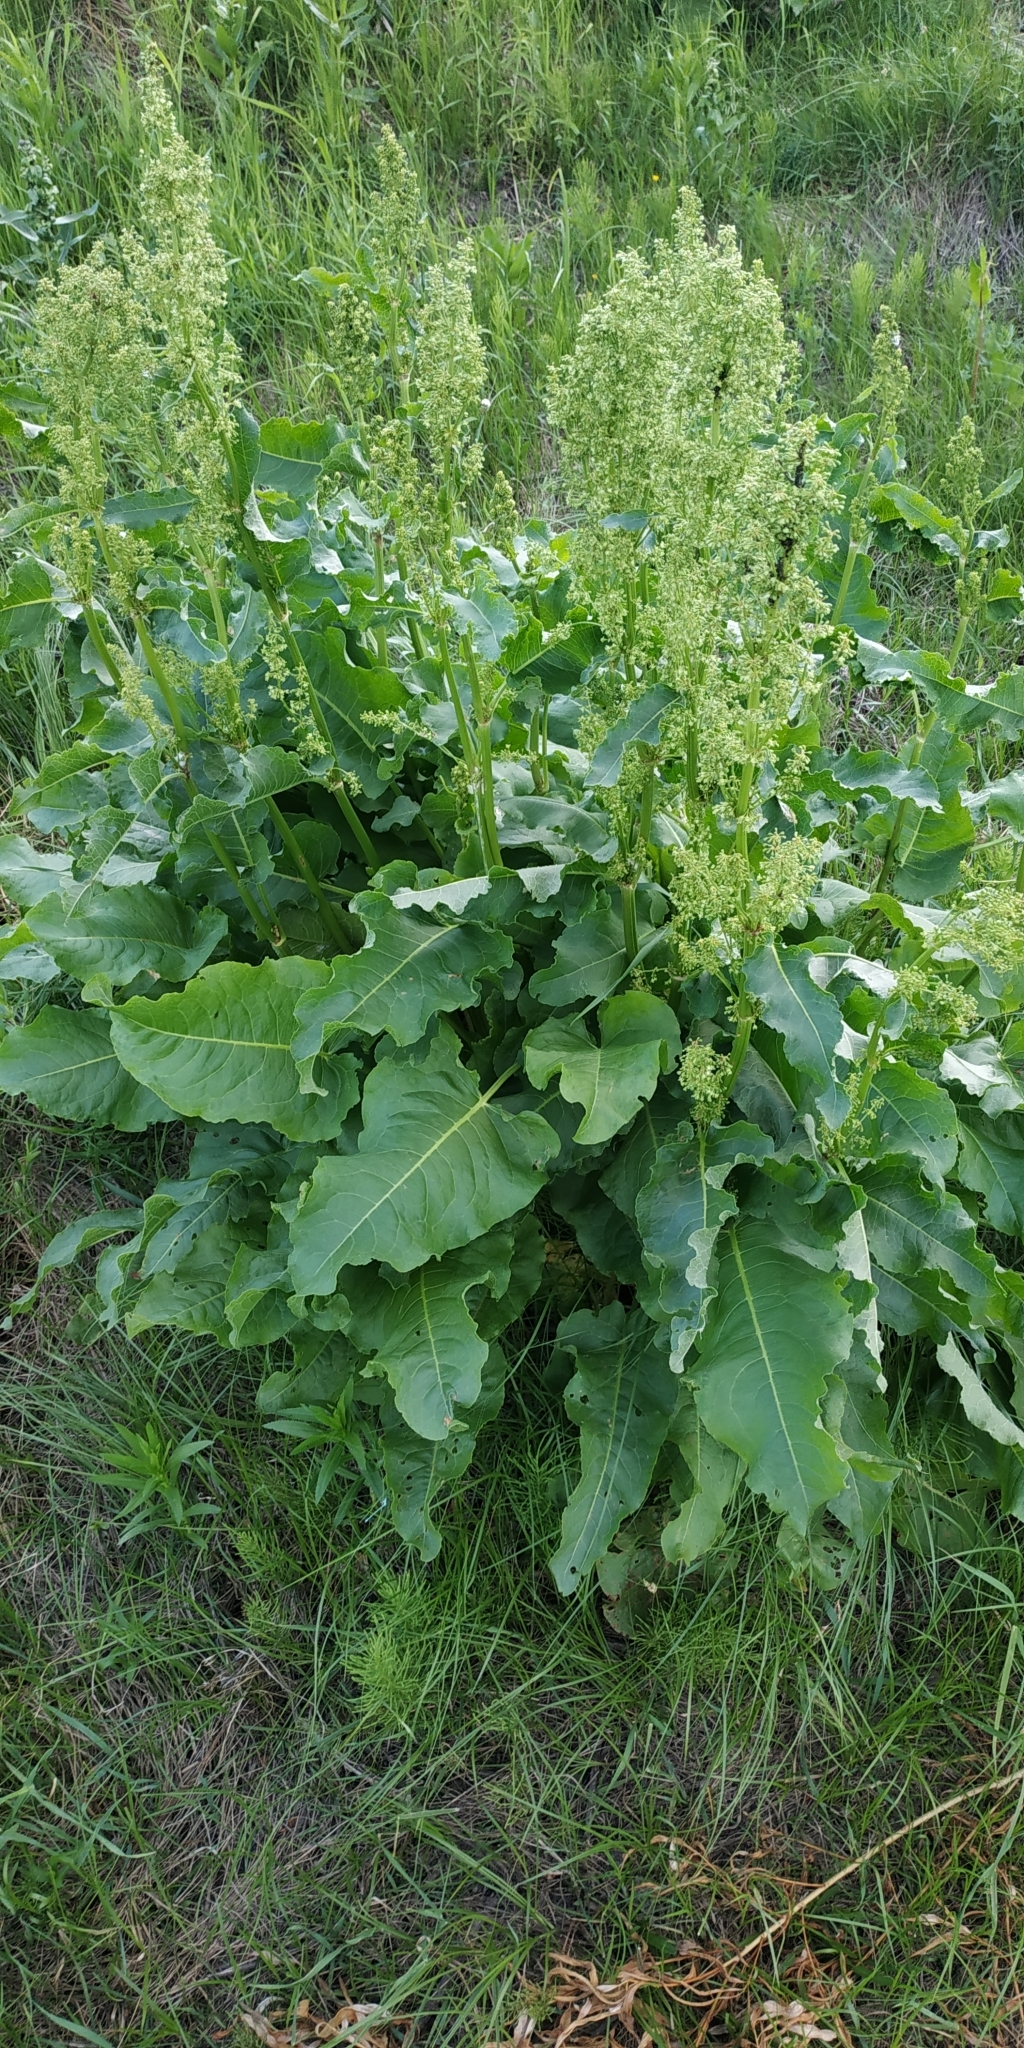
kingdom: Plantae
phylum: Tracheophyta
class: Magnoliopsida
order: Caryophyllales
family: Polygonaceae
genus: Rumex
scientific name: Rumex confertus
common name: Russian dock
